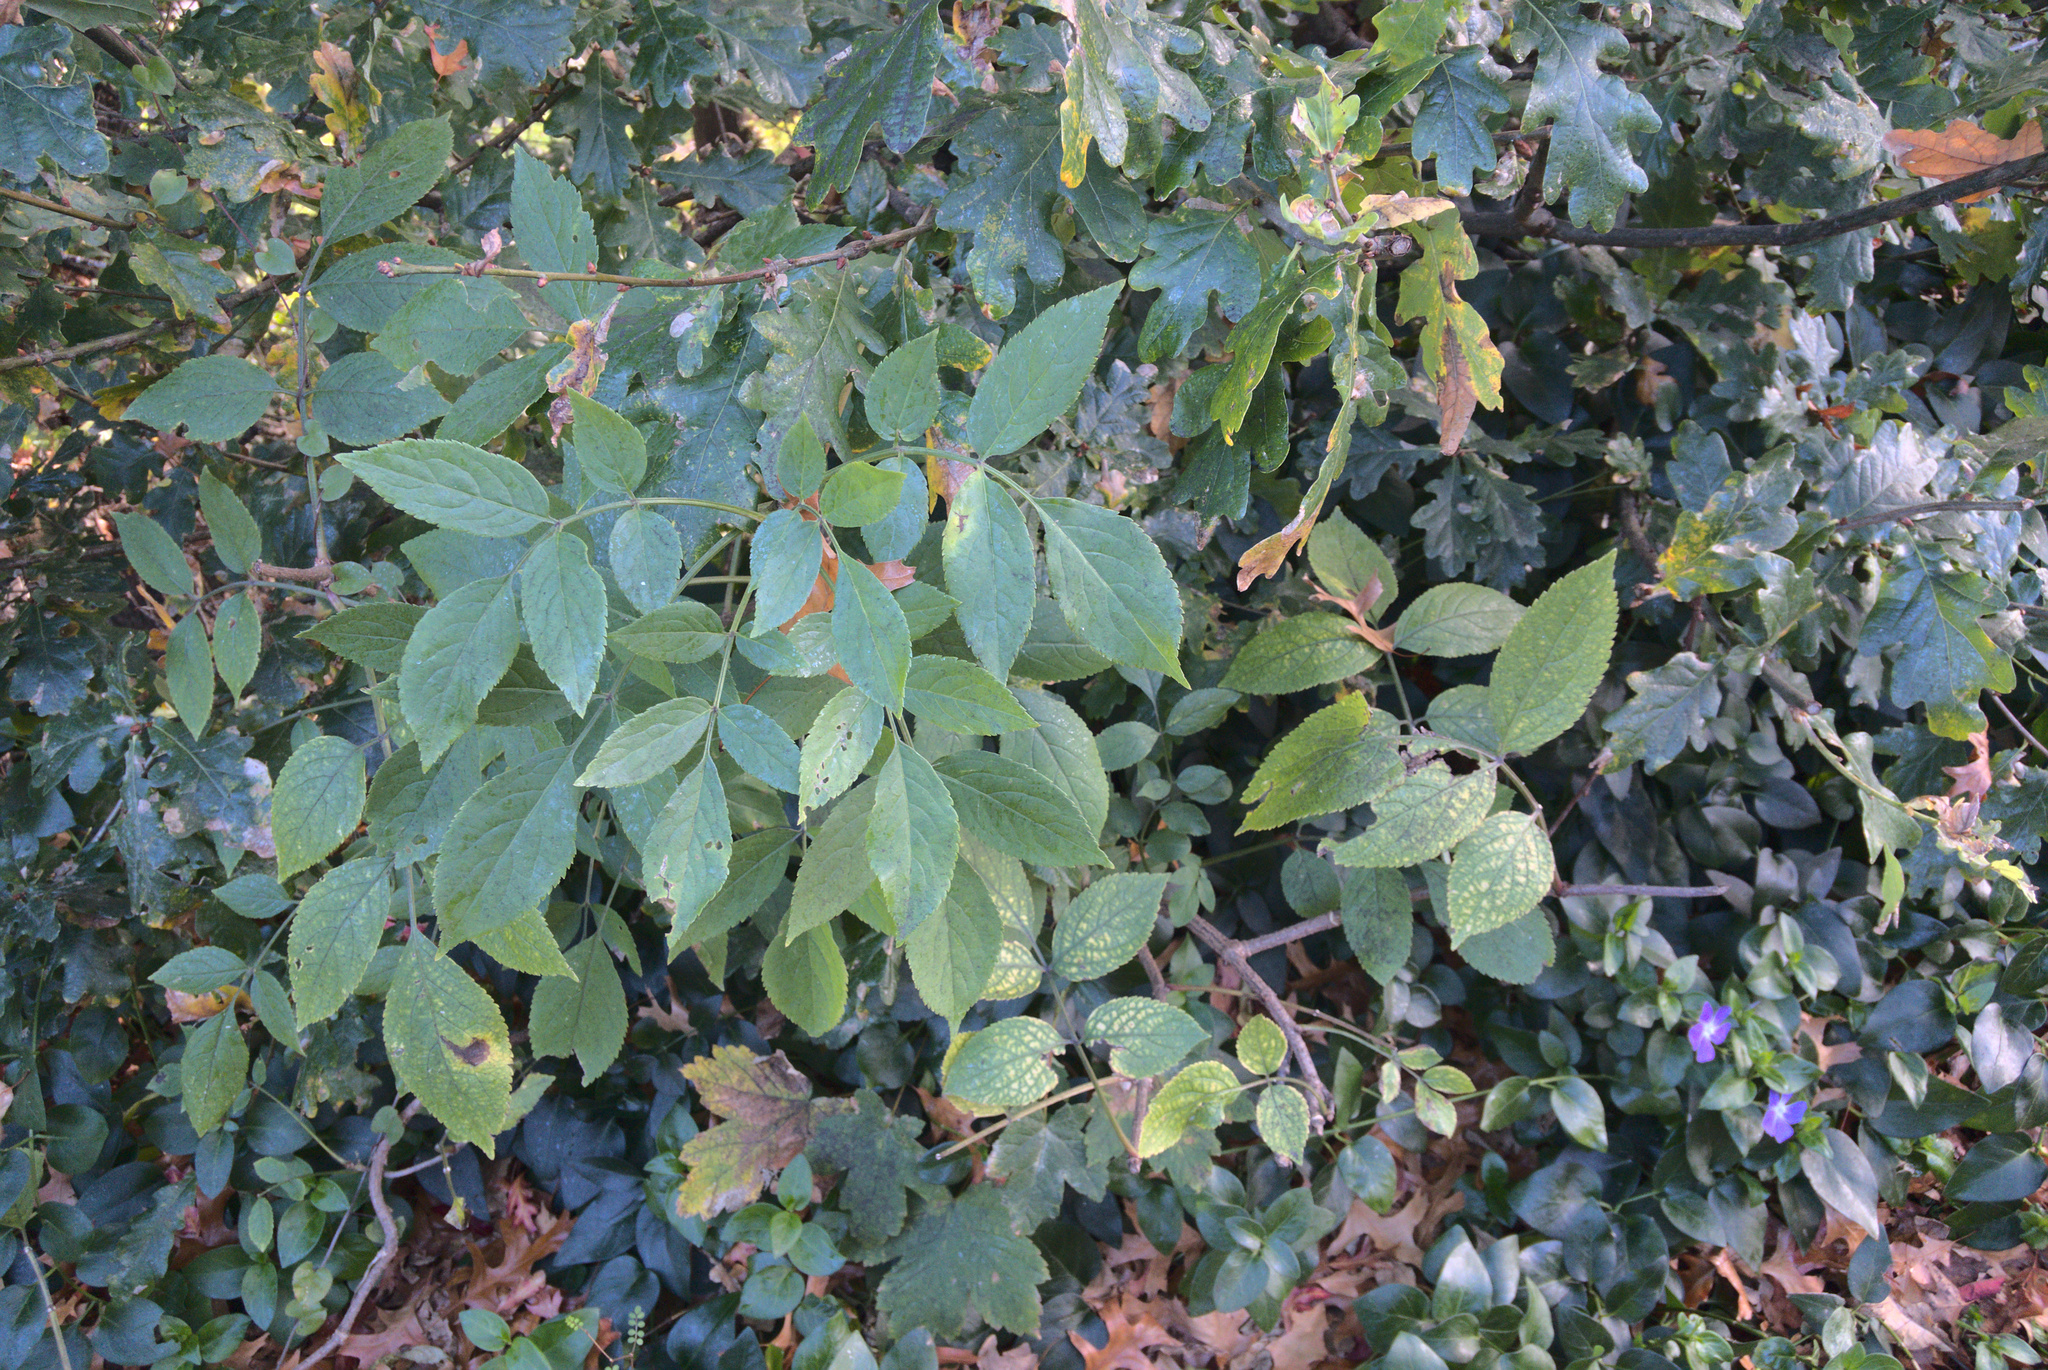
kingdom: Plantae
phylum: Tracheophyta
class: Magnoliopsida
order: Dipsacales
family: Viburnaceae
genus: Sambucus
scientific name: Sambucus nigra
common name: Elder
